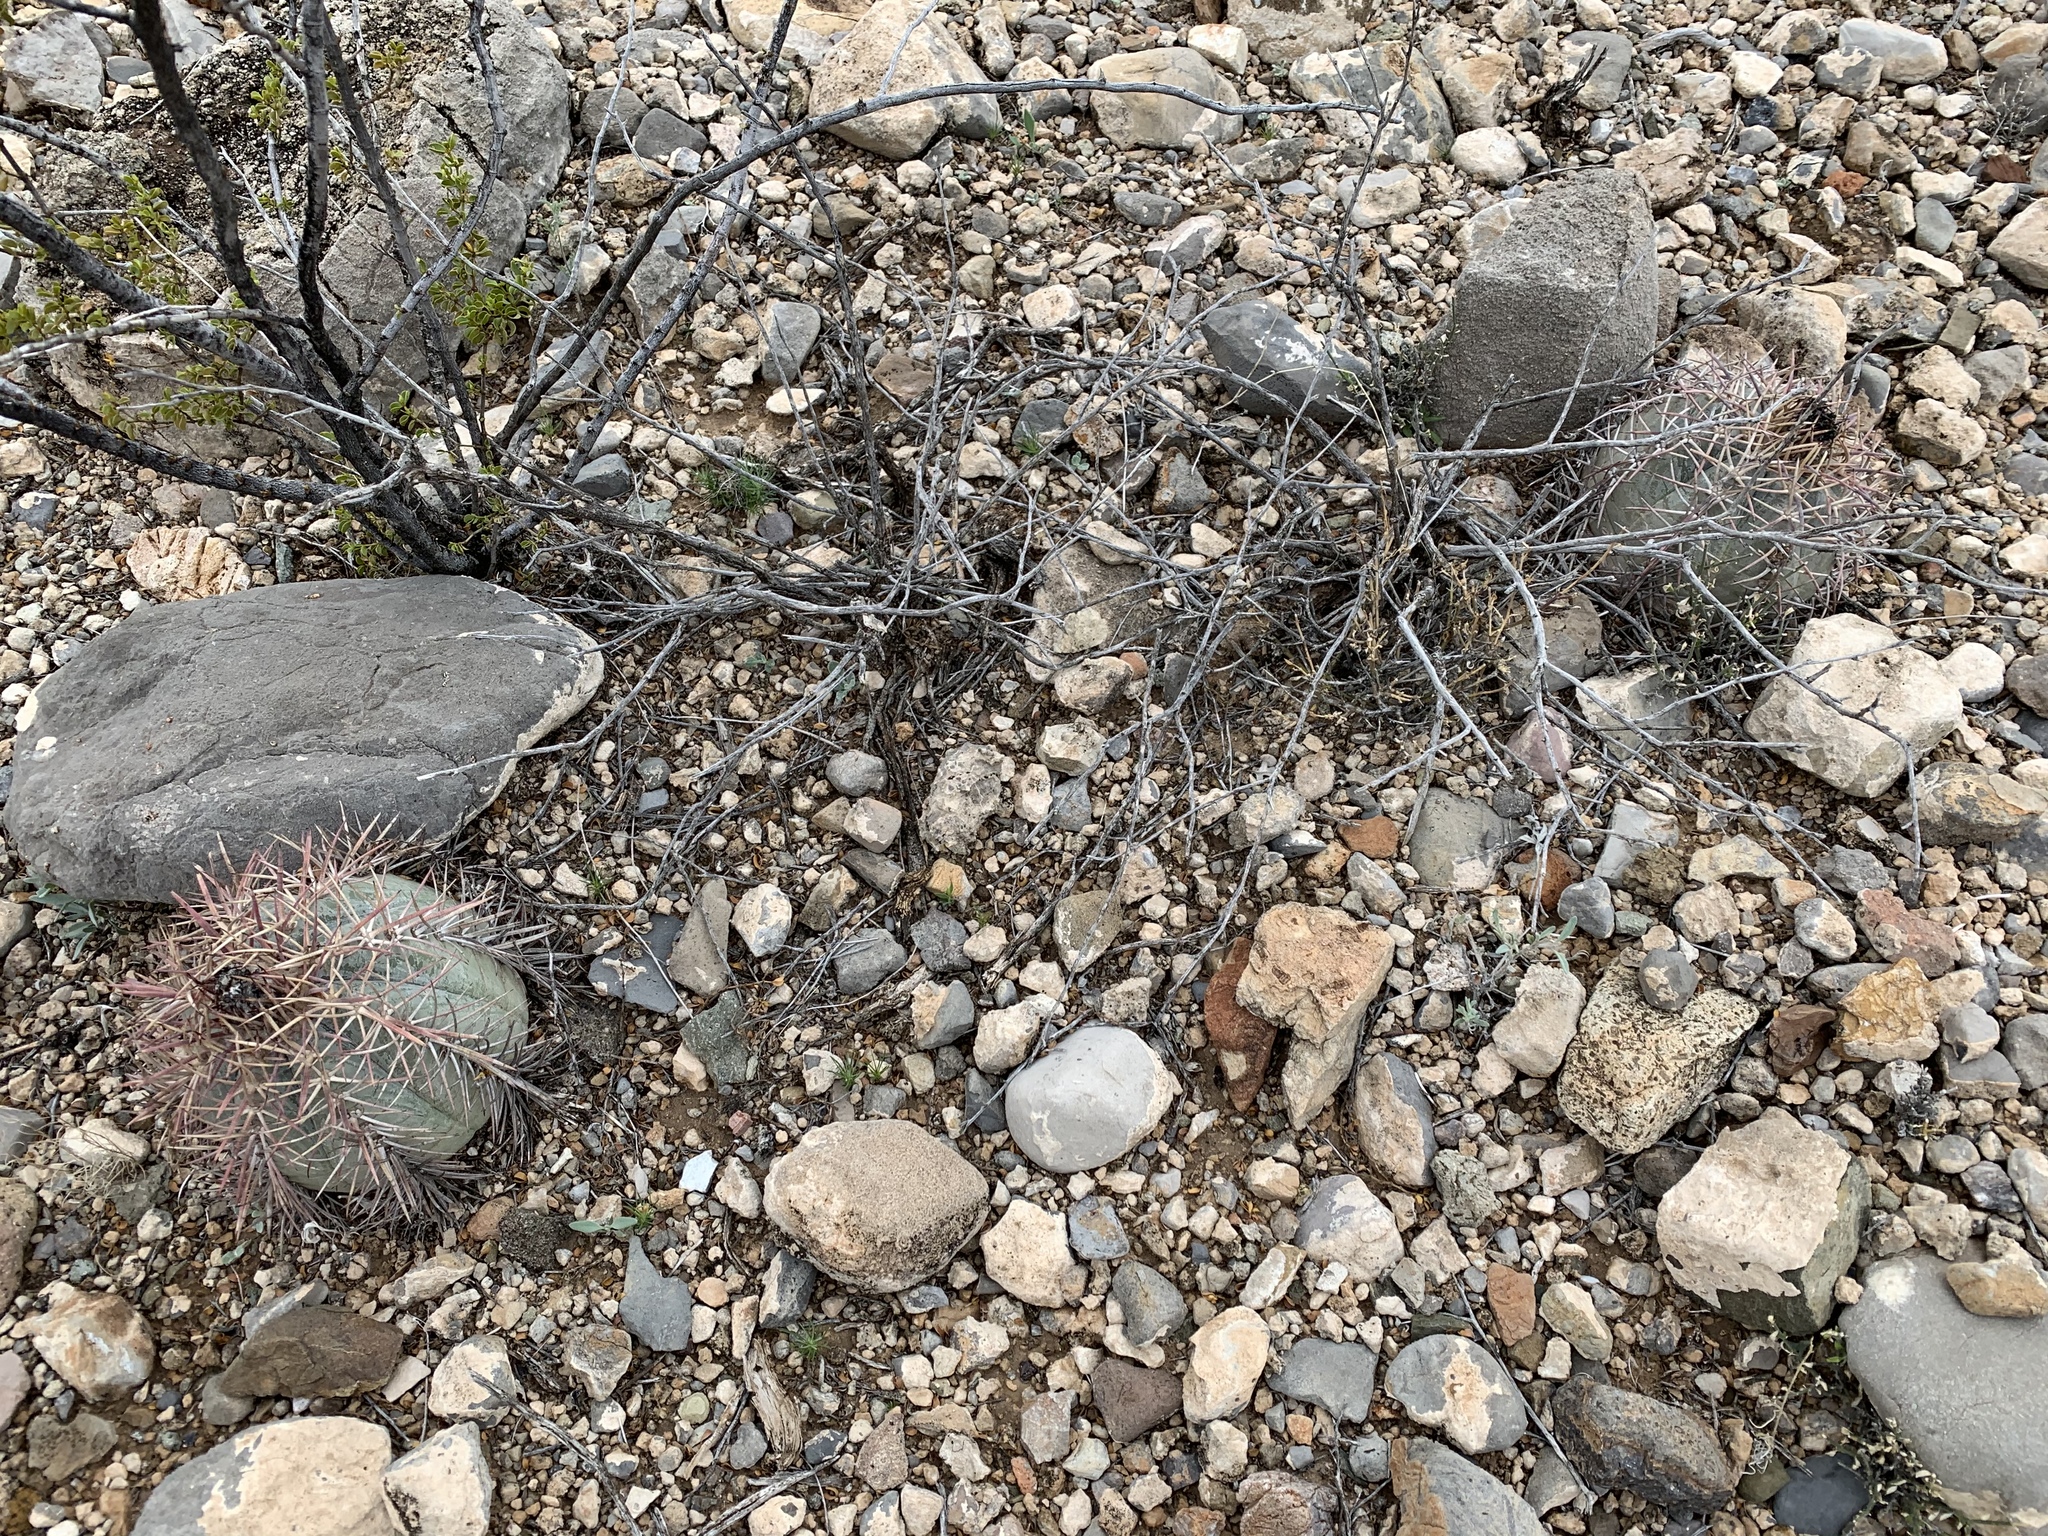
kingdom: Plantae
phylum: Tracheophyta
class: Magnoliopsida
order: Caryophyllales
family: Cactaceae
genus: Echinocactus
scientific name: Echinocactus horizonthalonius
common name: Devilshead
